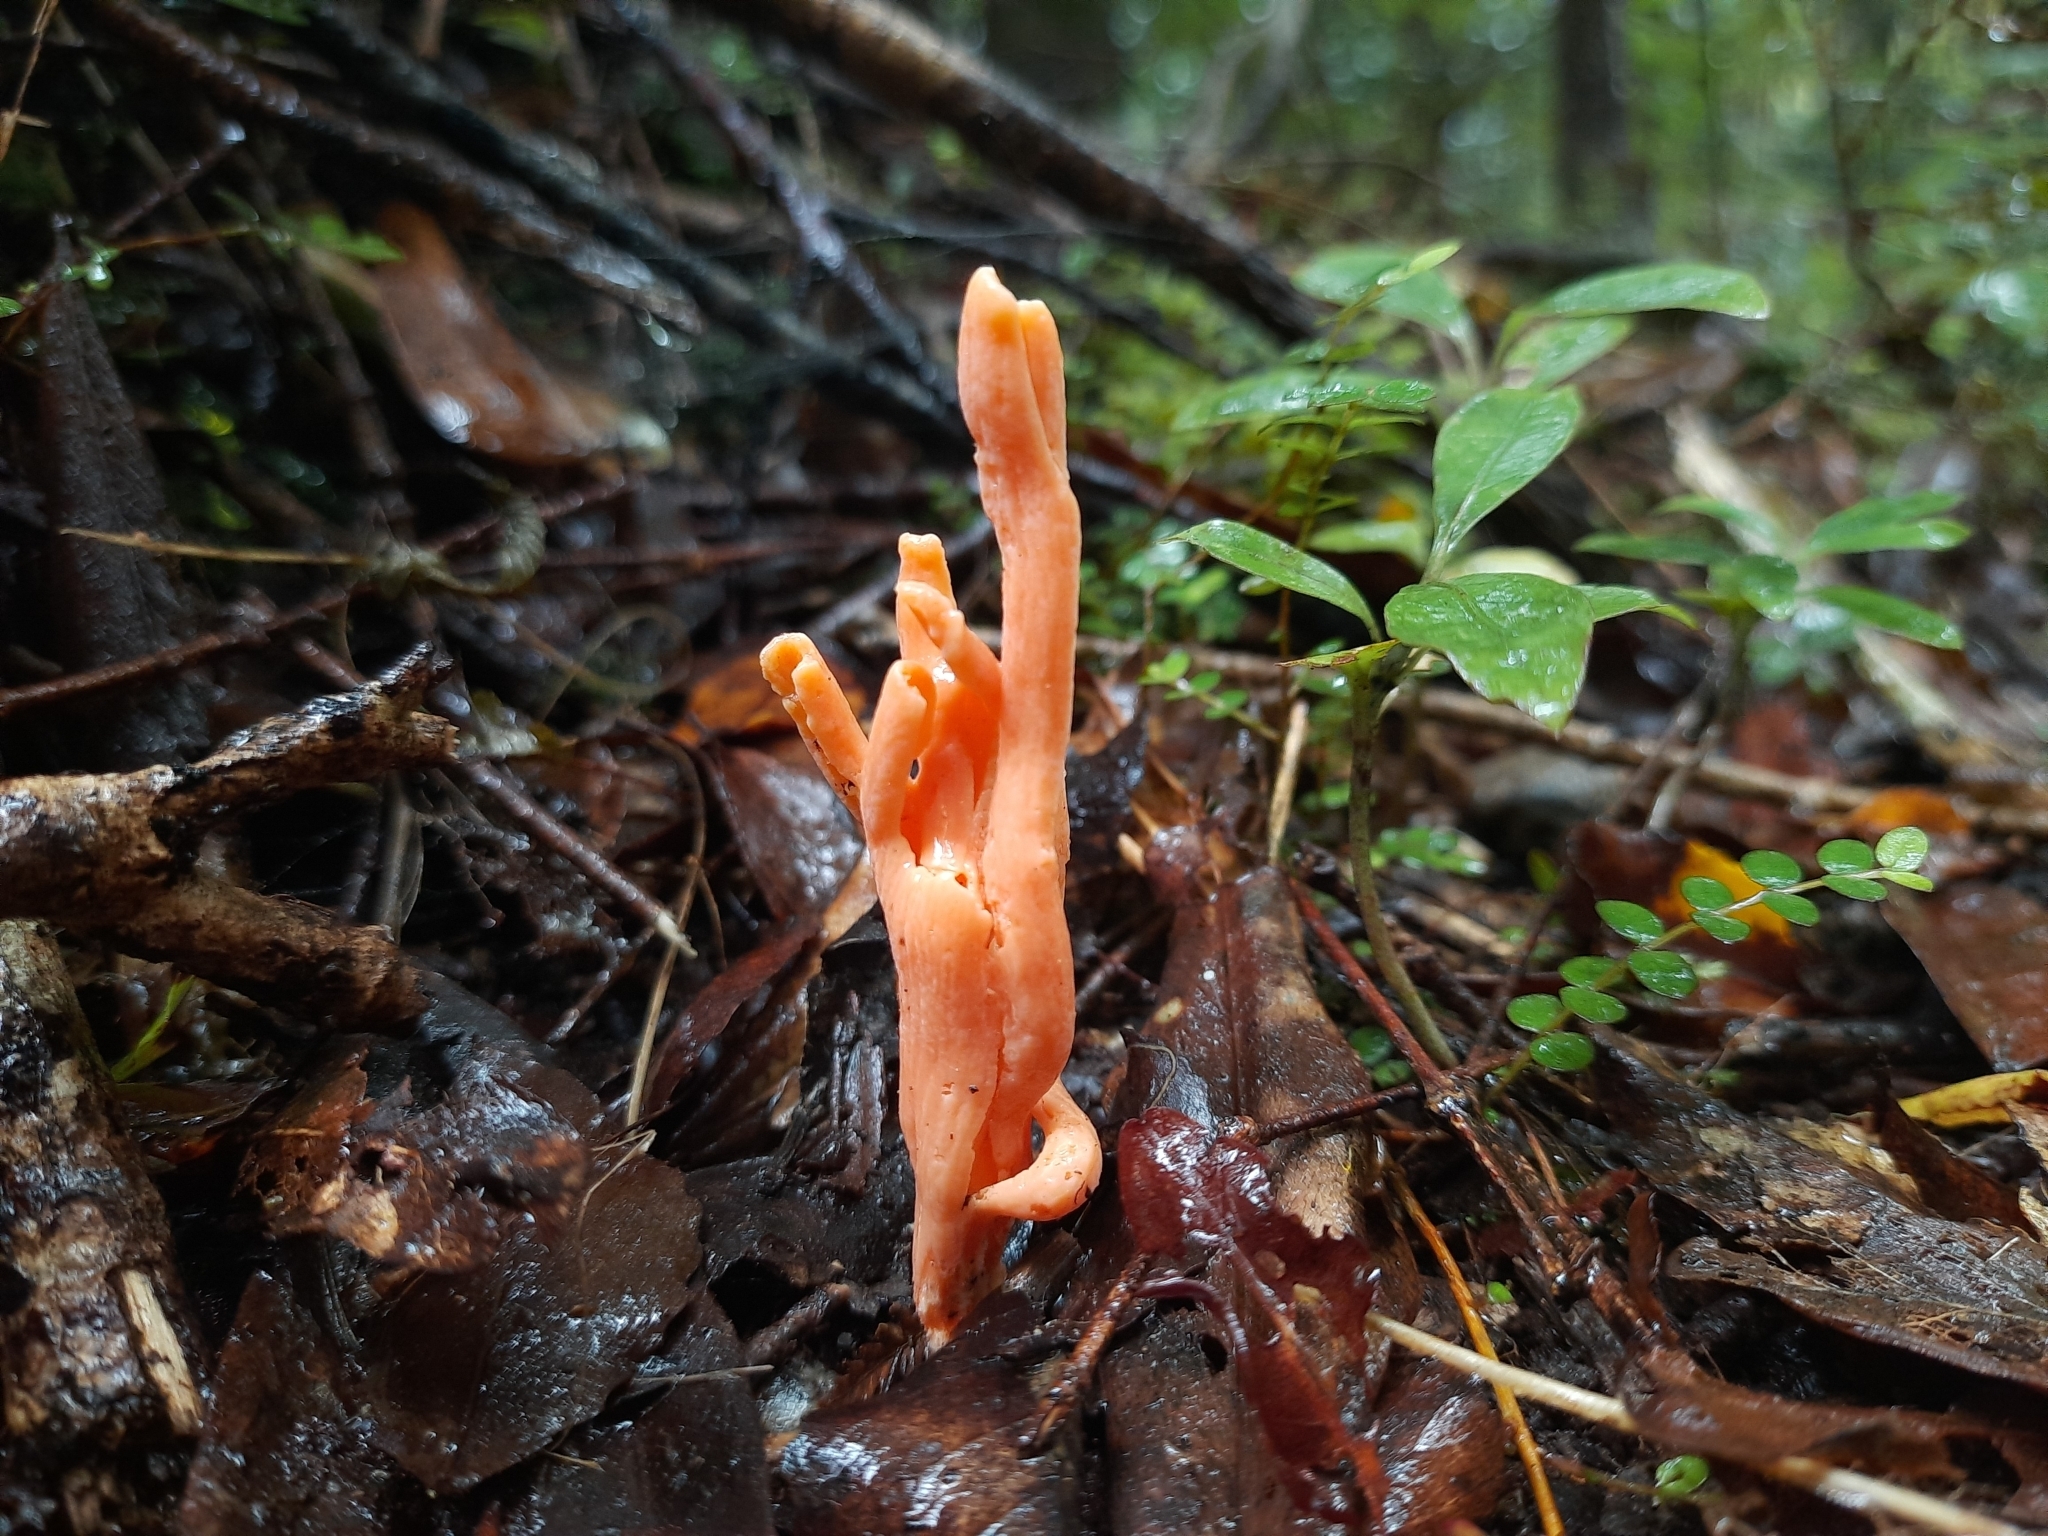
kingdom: Fungi
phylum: Basidiomycota
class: Agaricomycetes
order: Agaricales
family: Clavariaceae
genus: Clavulinopsis
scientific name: Clavulinopsis sulcata
